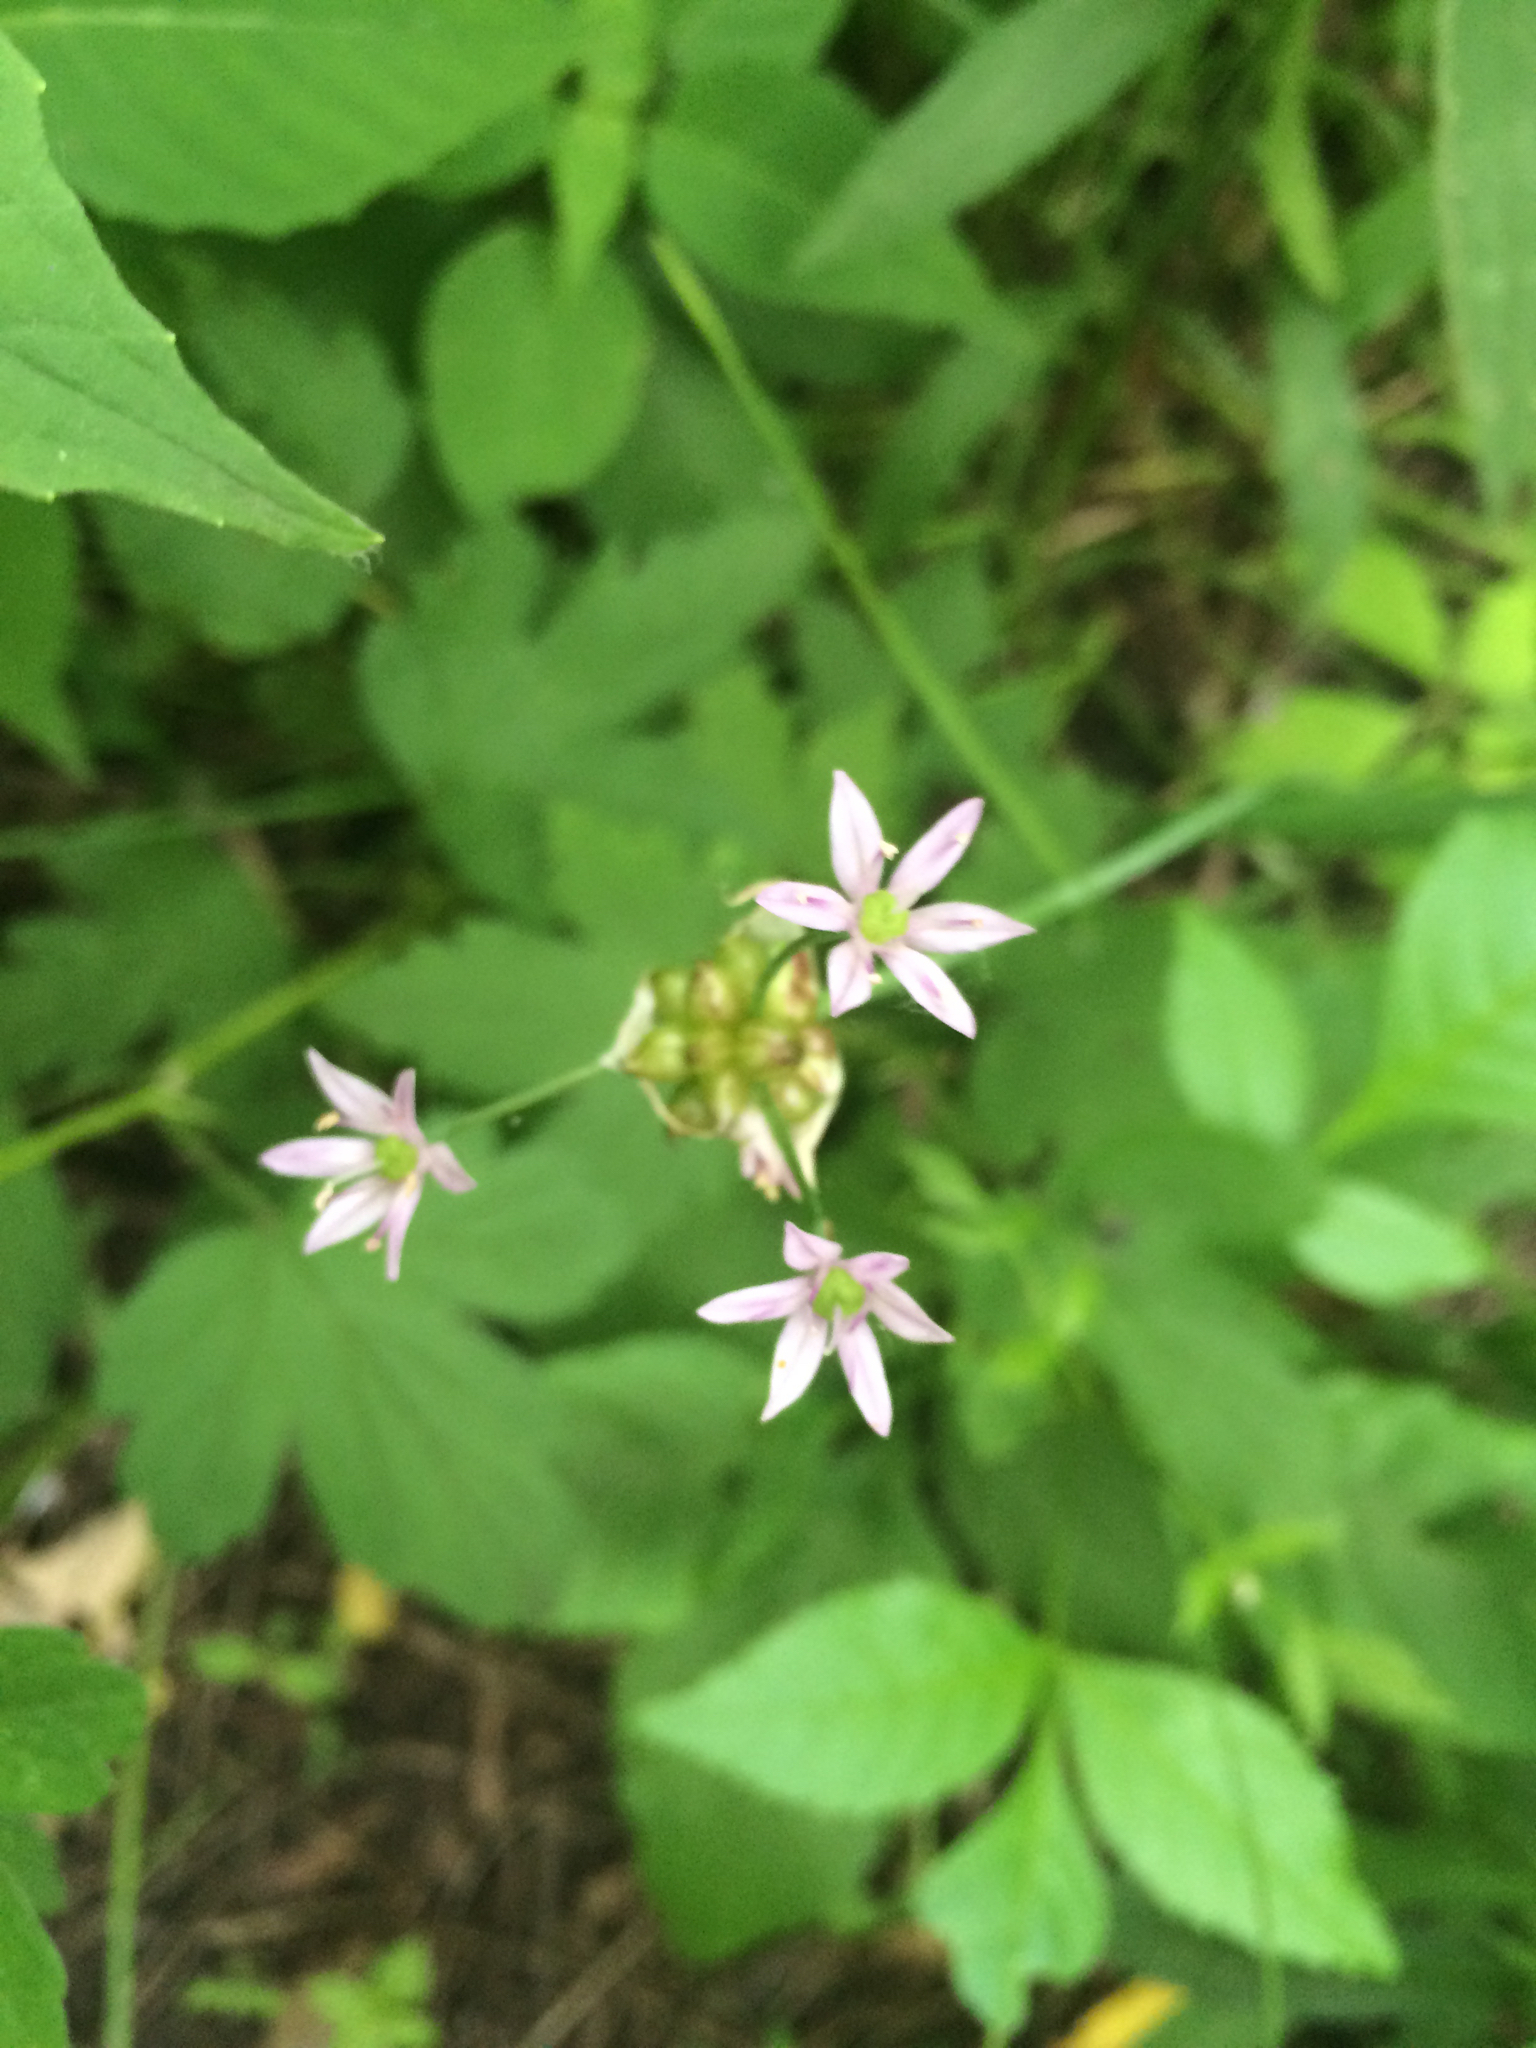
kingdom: Plantae
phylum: Tracheophyta
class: Liliopsida
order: Asparagales
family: Amaryllidaceae
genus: Allium
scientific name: Allium canadense
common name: Meadow garlic
